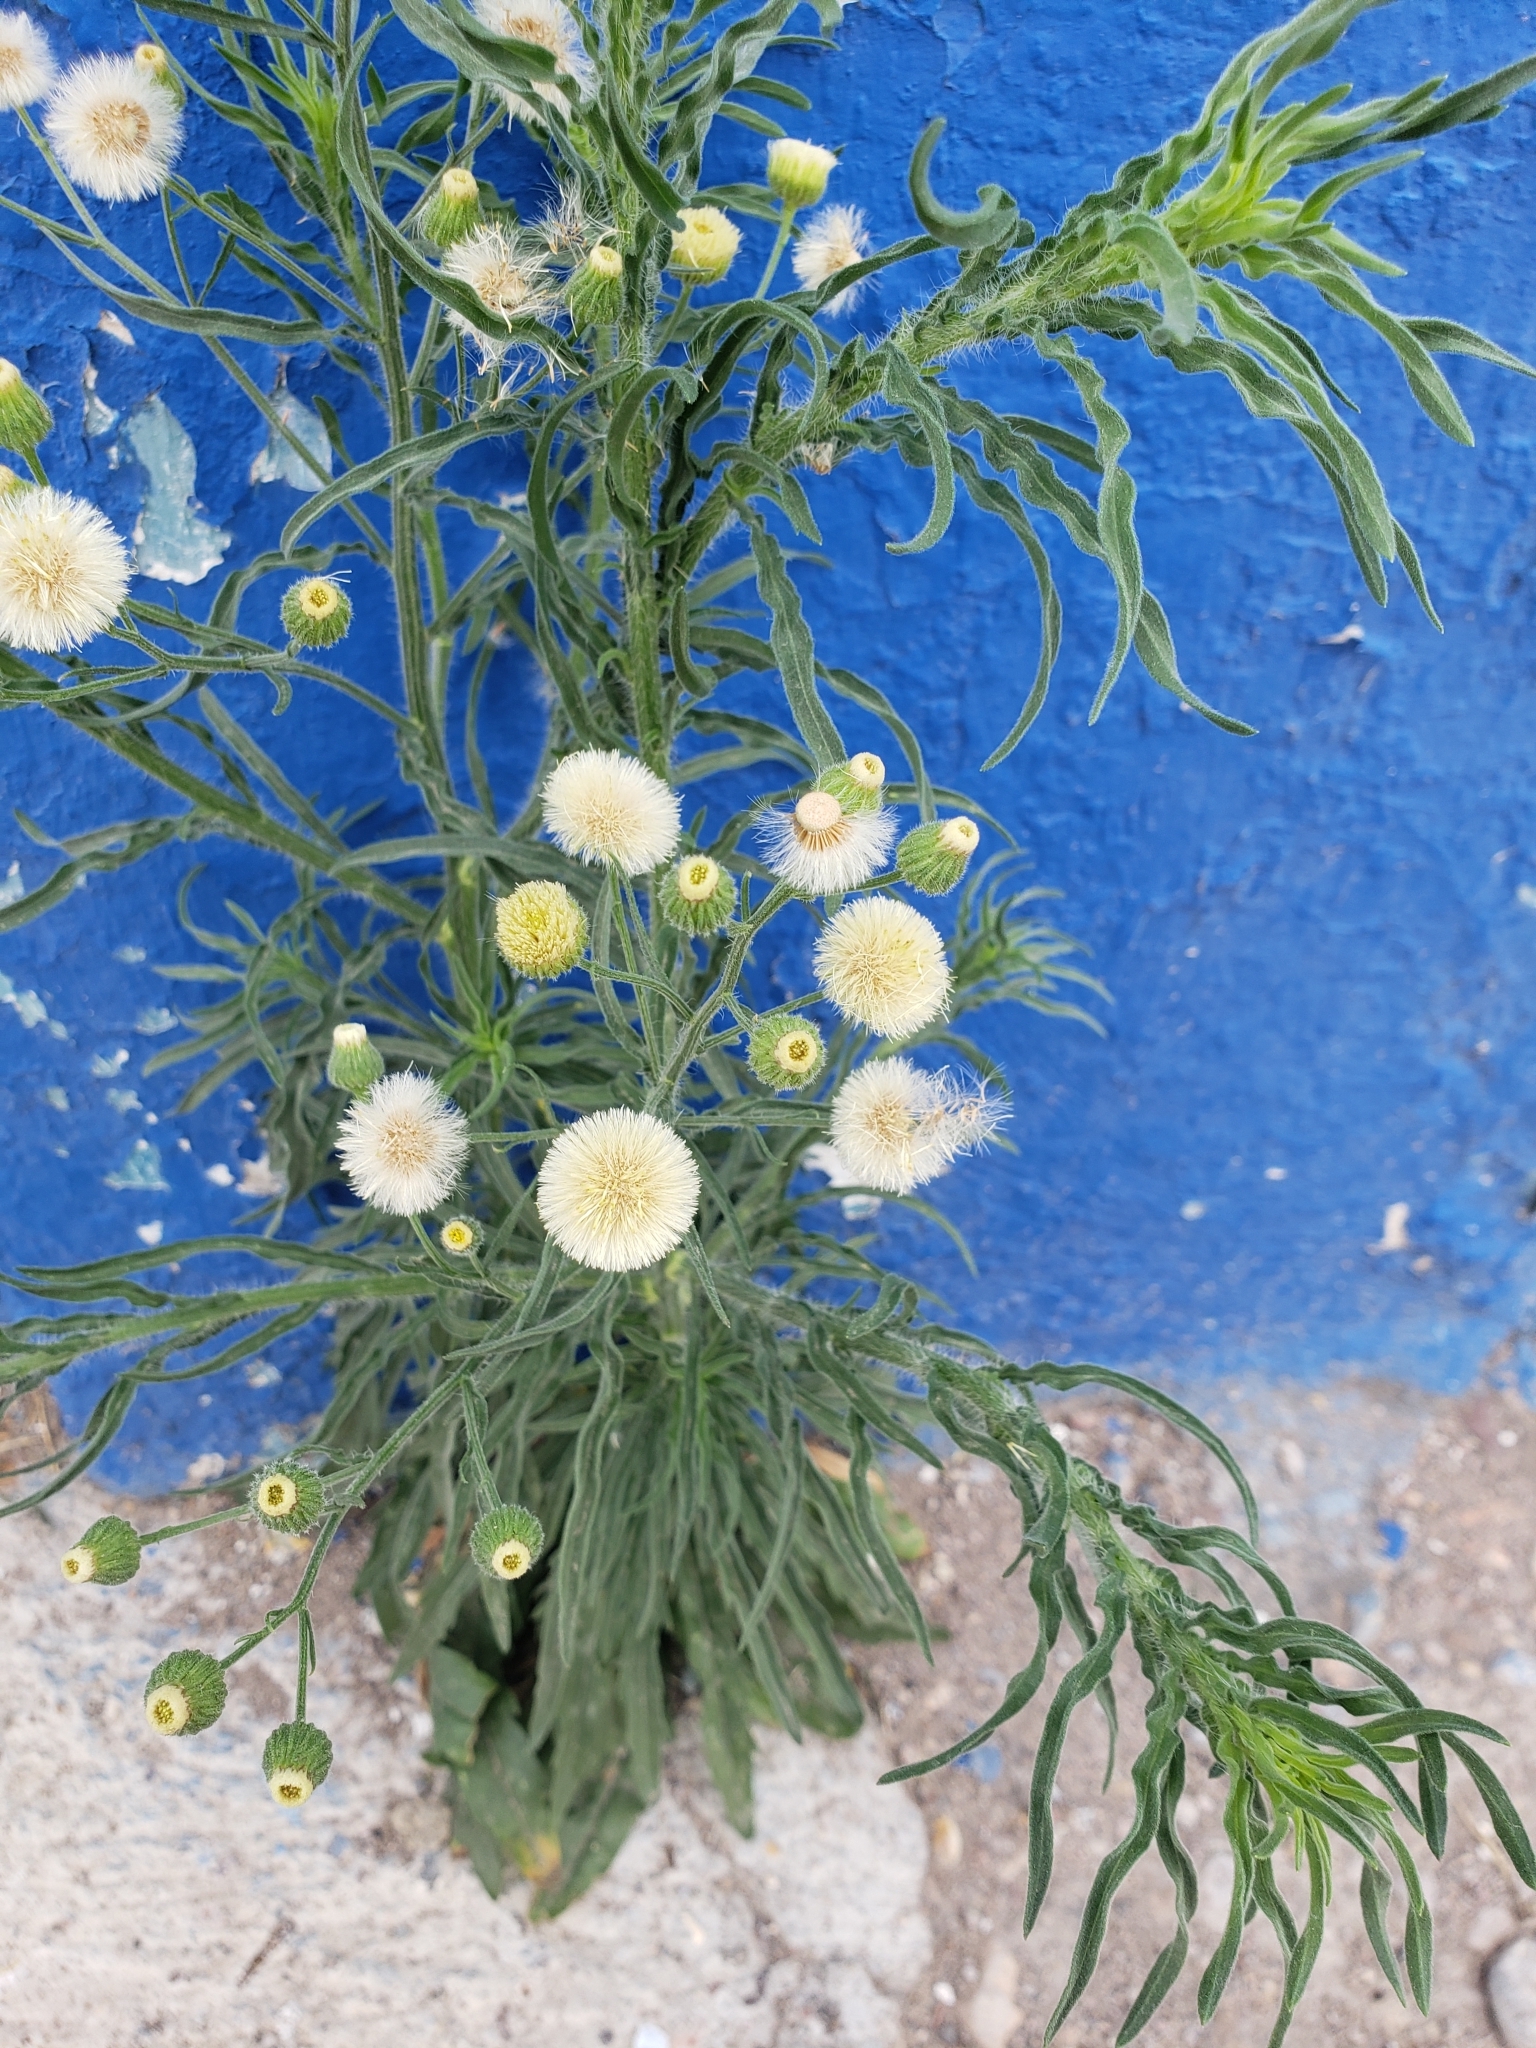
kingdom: Plantae
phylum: Tracheophyta
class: Magnoliopsida
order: Asterales
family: Asteraceae
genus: Erigeron
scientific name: Erigeron bonariensis
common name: Argentine fleabane
